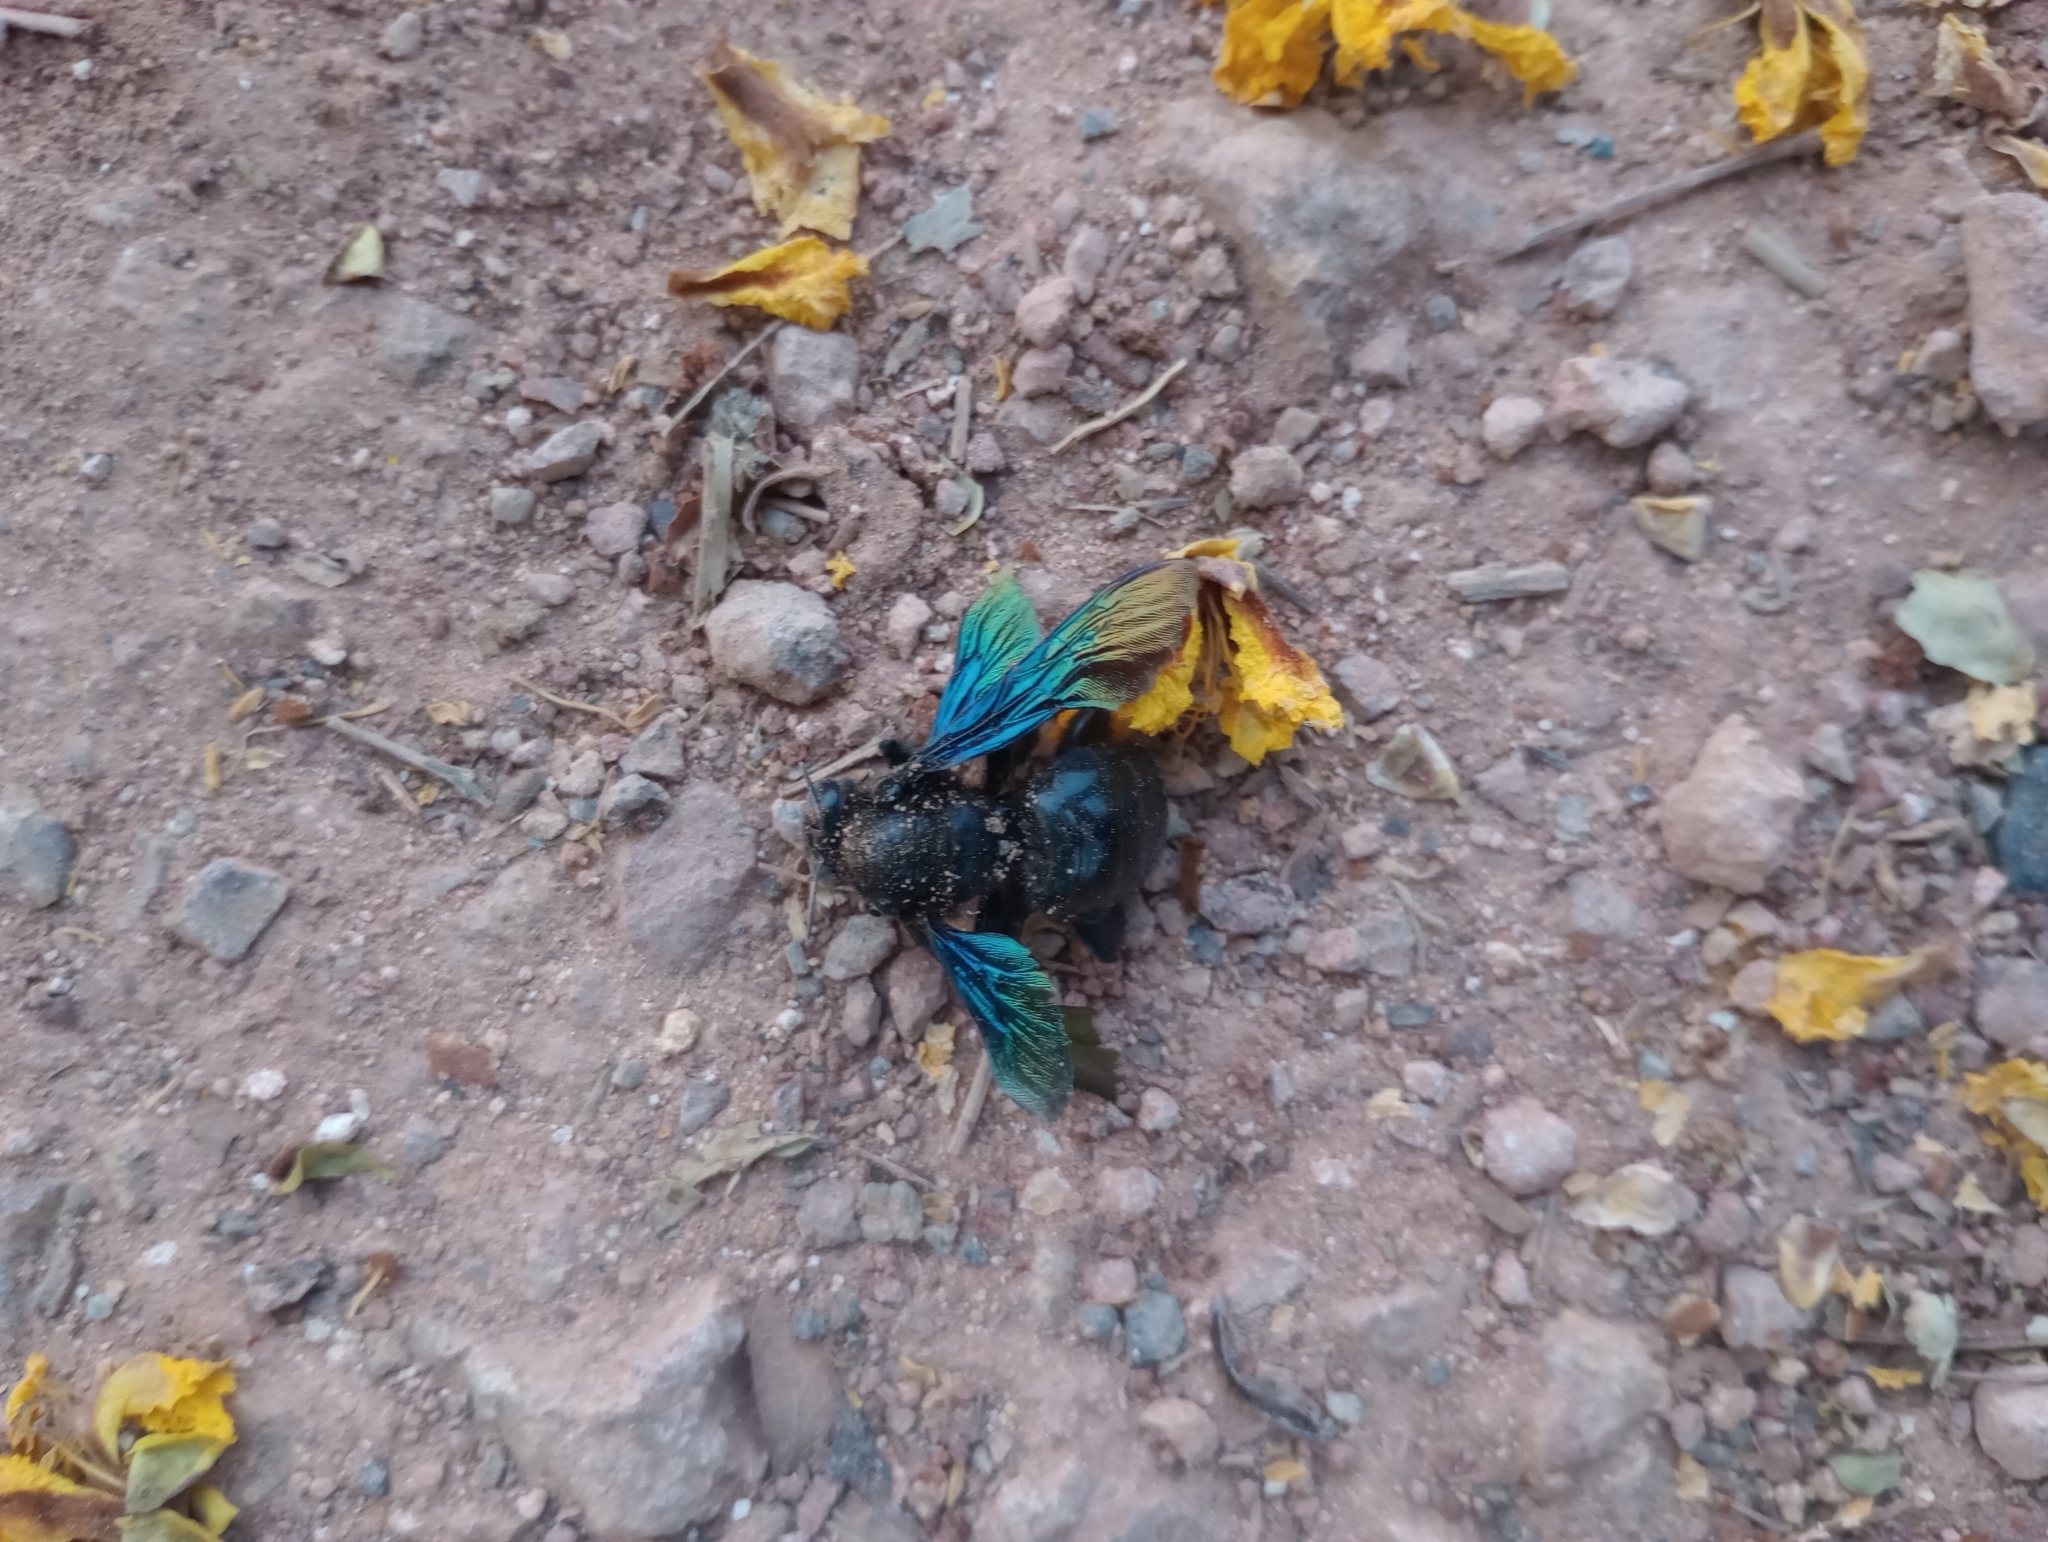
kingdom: Animalia
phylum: Arthropoda
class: Insecta
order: Hymenoptera
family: Apidae
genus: Xylocopa
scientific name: Xylocopa auripennis
